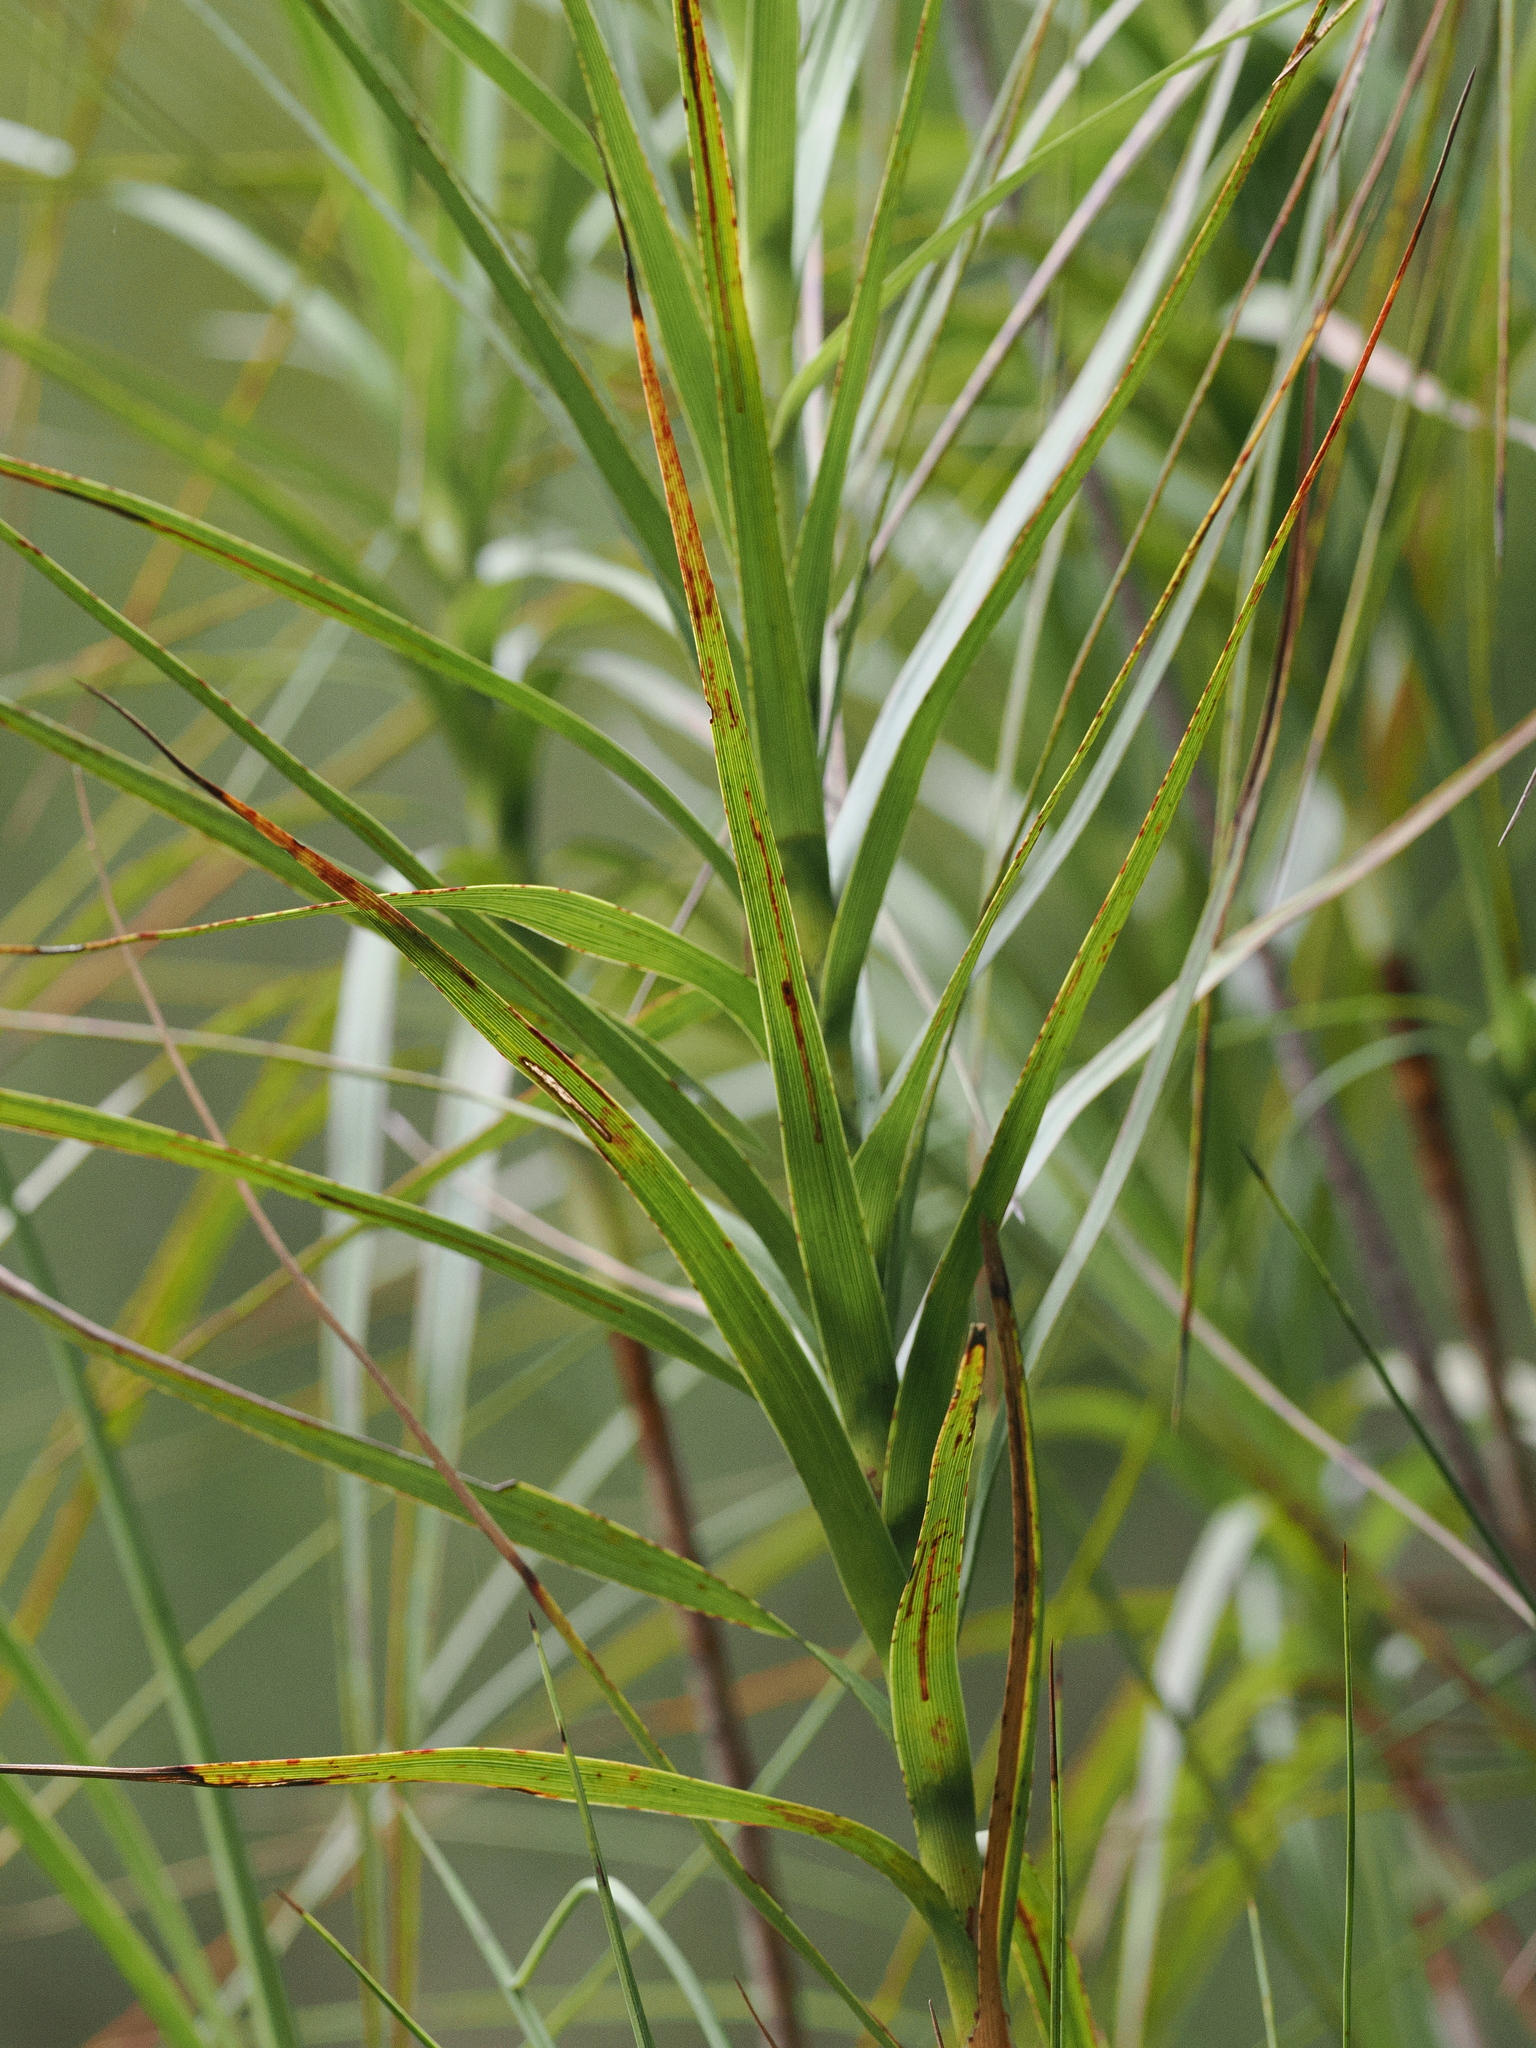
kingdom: Plantae
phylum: Tracheophyta
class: Magnoliopsida
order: Ericales
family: Ericaceae
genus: Dracophyllum
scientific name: Dracophyllum longifolium
